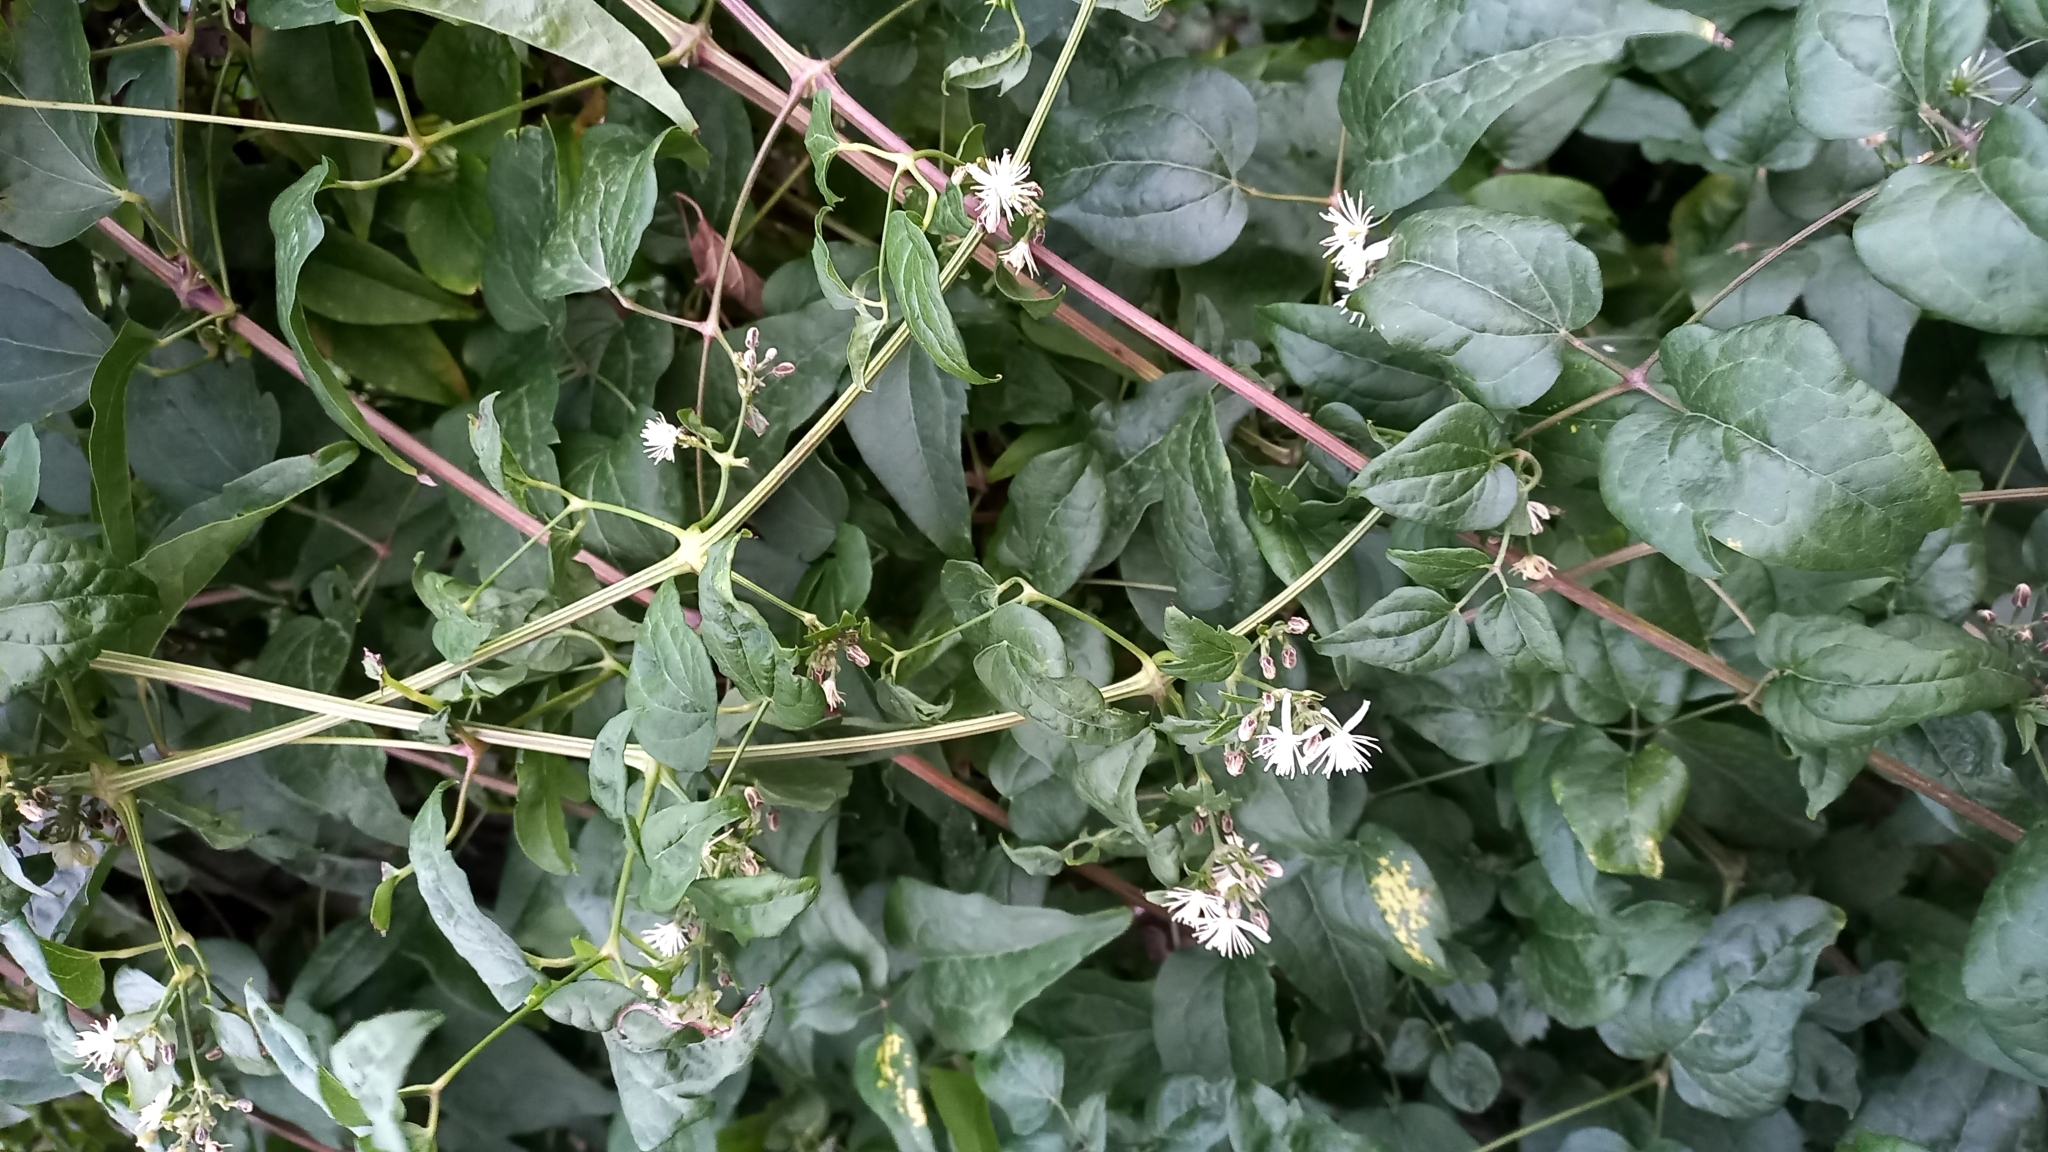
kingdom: Plantae
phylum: Tracheophyta
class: Magnoliopsida
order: Ranunculales
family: Ranunculaceae
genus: Clematis
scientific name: Clematis vitalba
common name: Evergreen clematis
